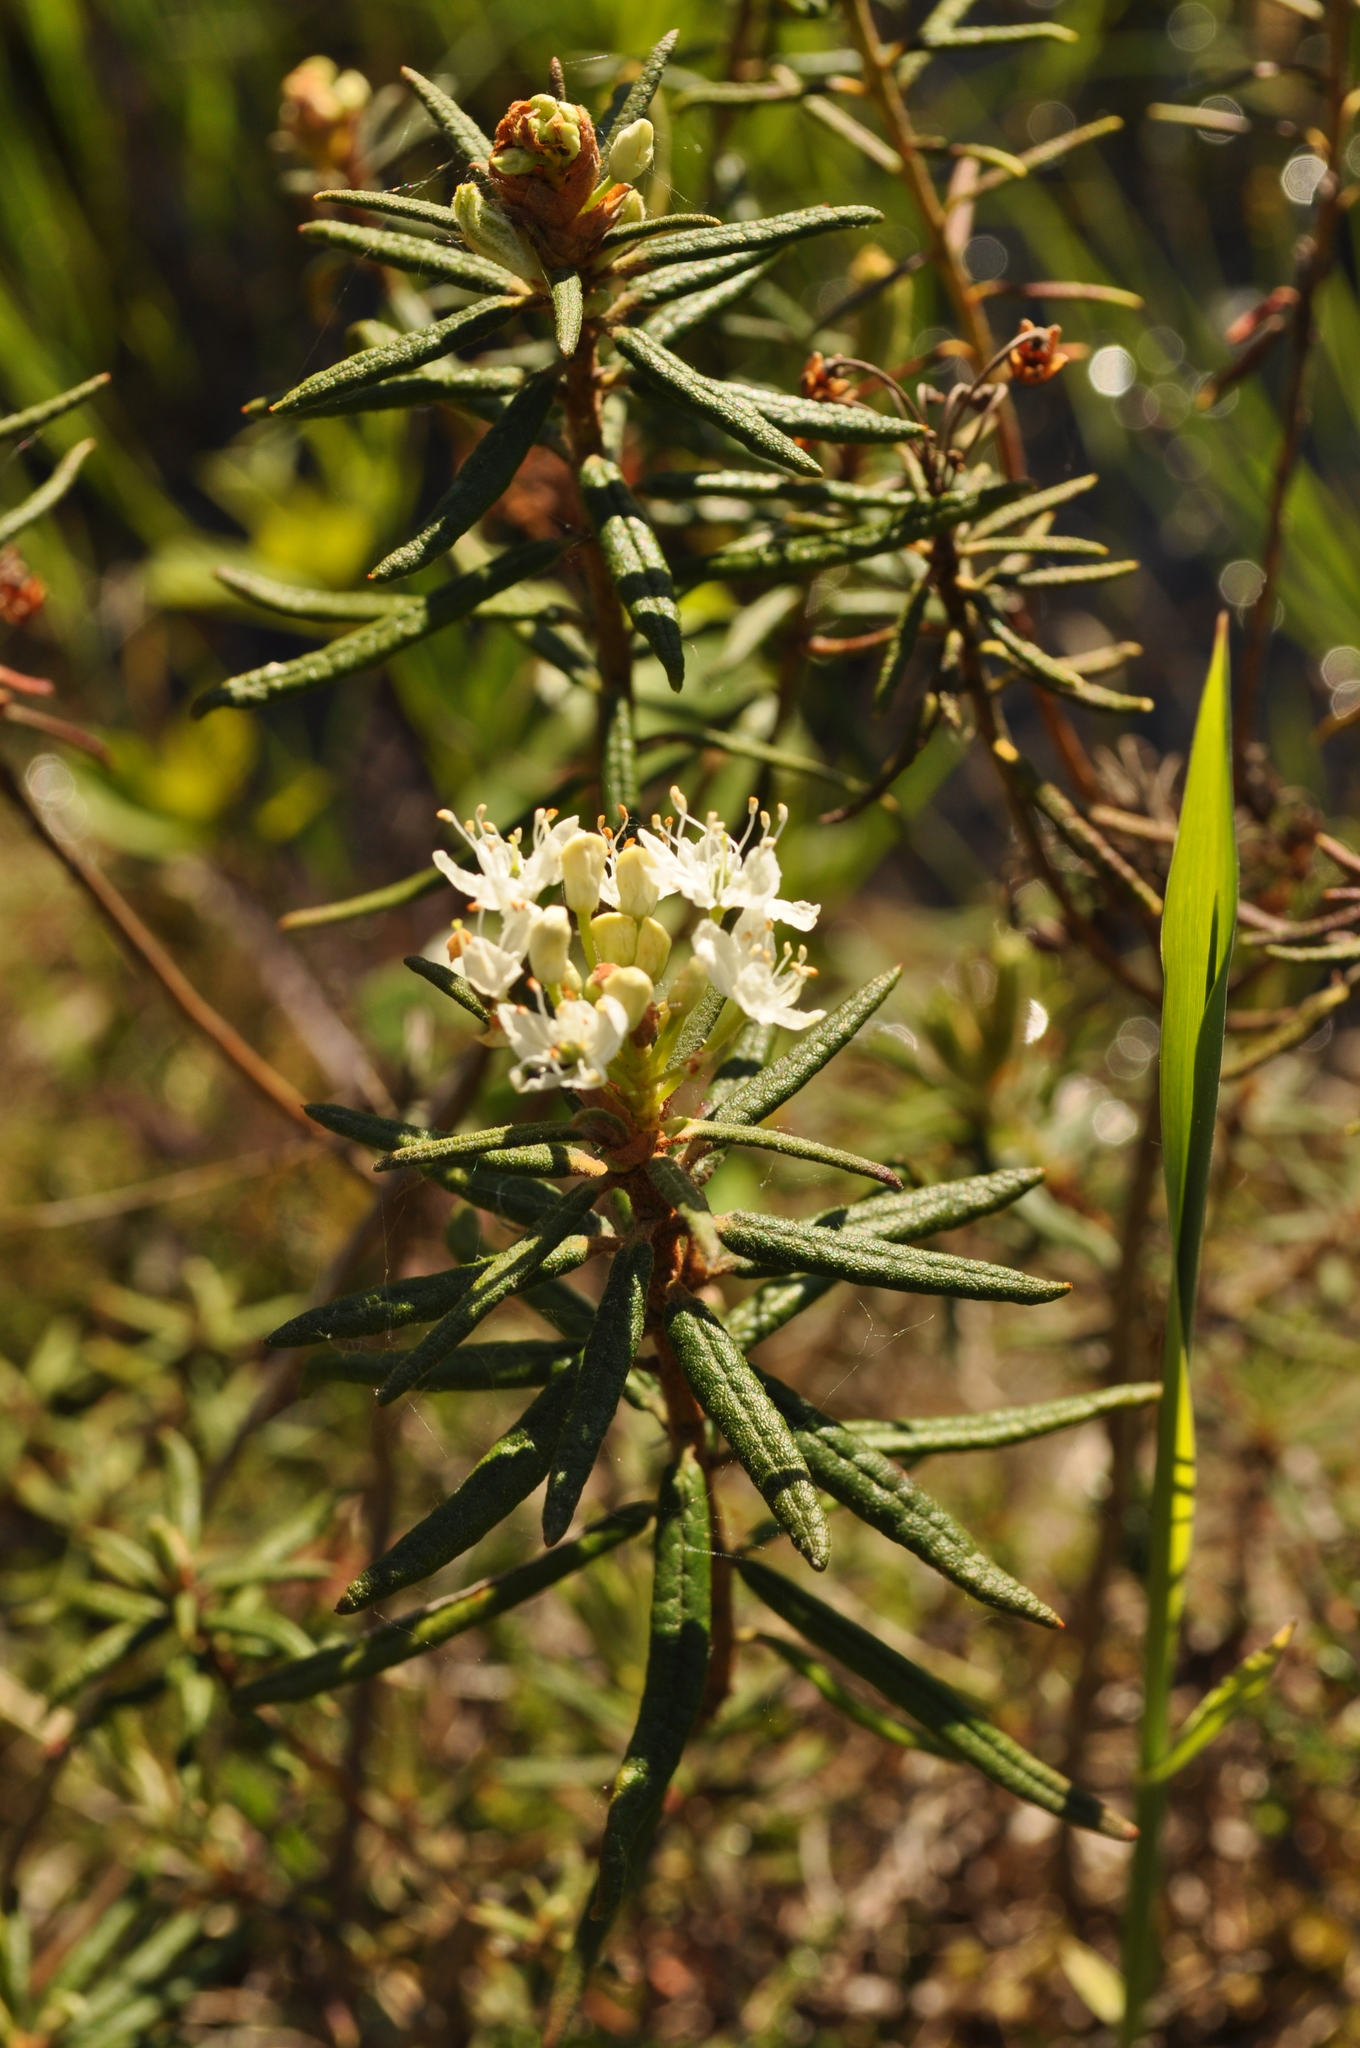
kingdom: Plantae
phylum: Tracheophyta
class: Magnoliopsida
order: Ericales
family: Ericaceae
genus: Rhododendron
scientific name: Rhododendron tomentosum
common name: Marsh labrador tea
